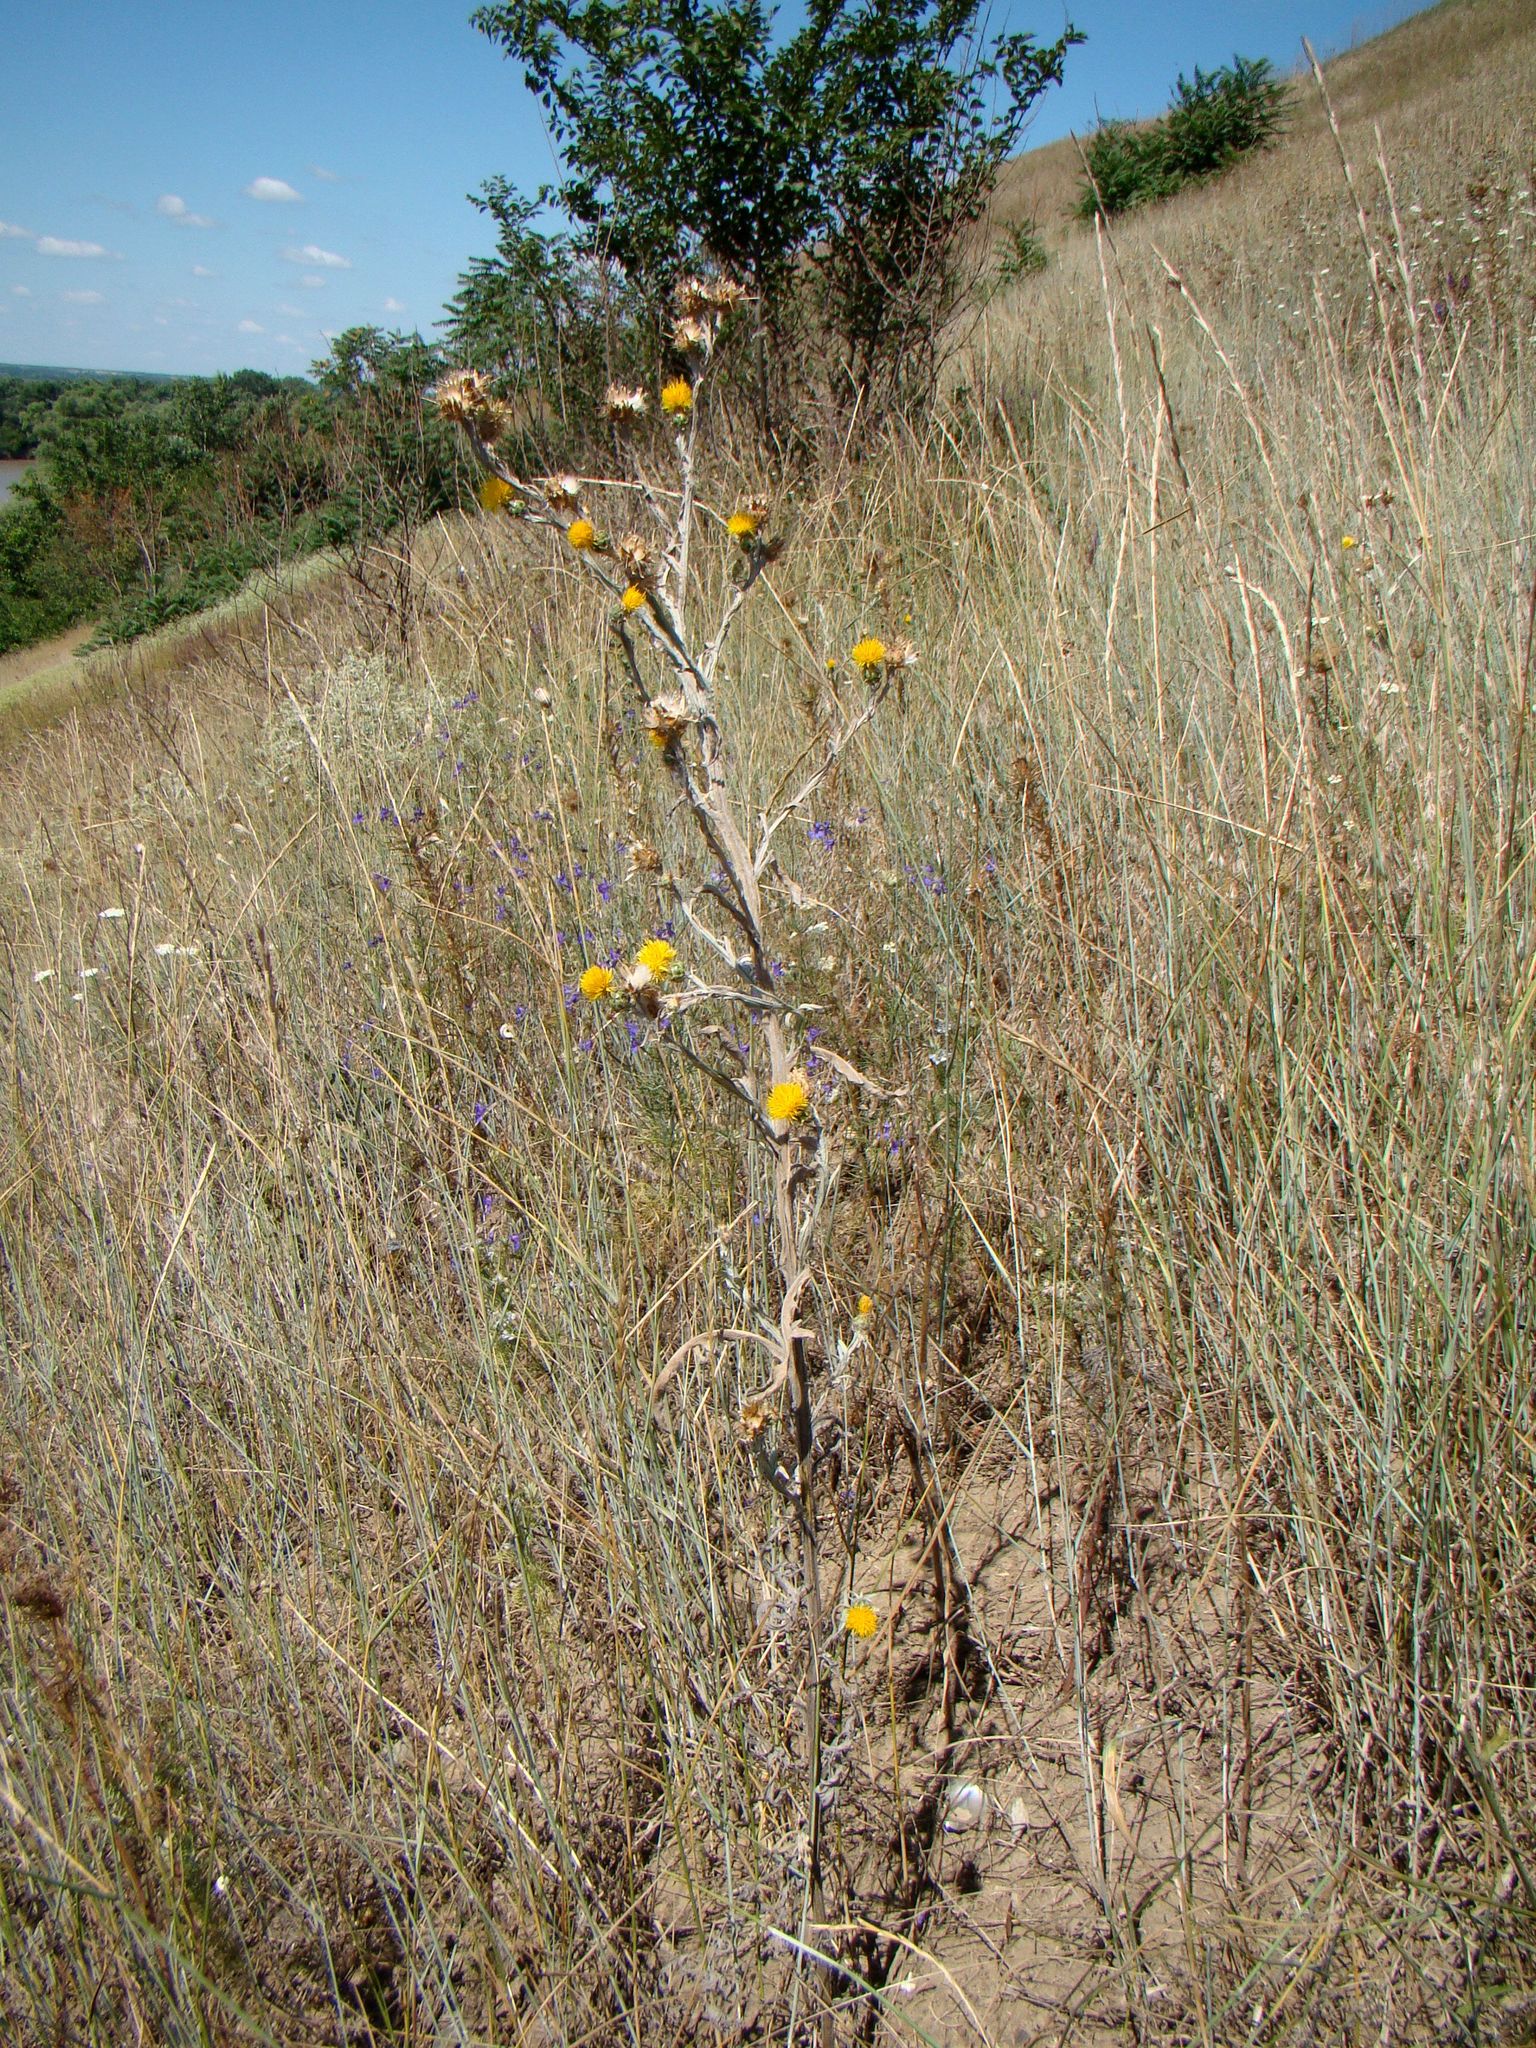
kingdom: Plantae
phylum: Tracheophyta
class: Magnoliopsida
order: Asterales
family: Asteraceae
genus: Centaurea
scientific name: Centaurea solstitialis
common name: Yellow star-thistle
